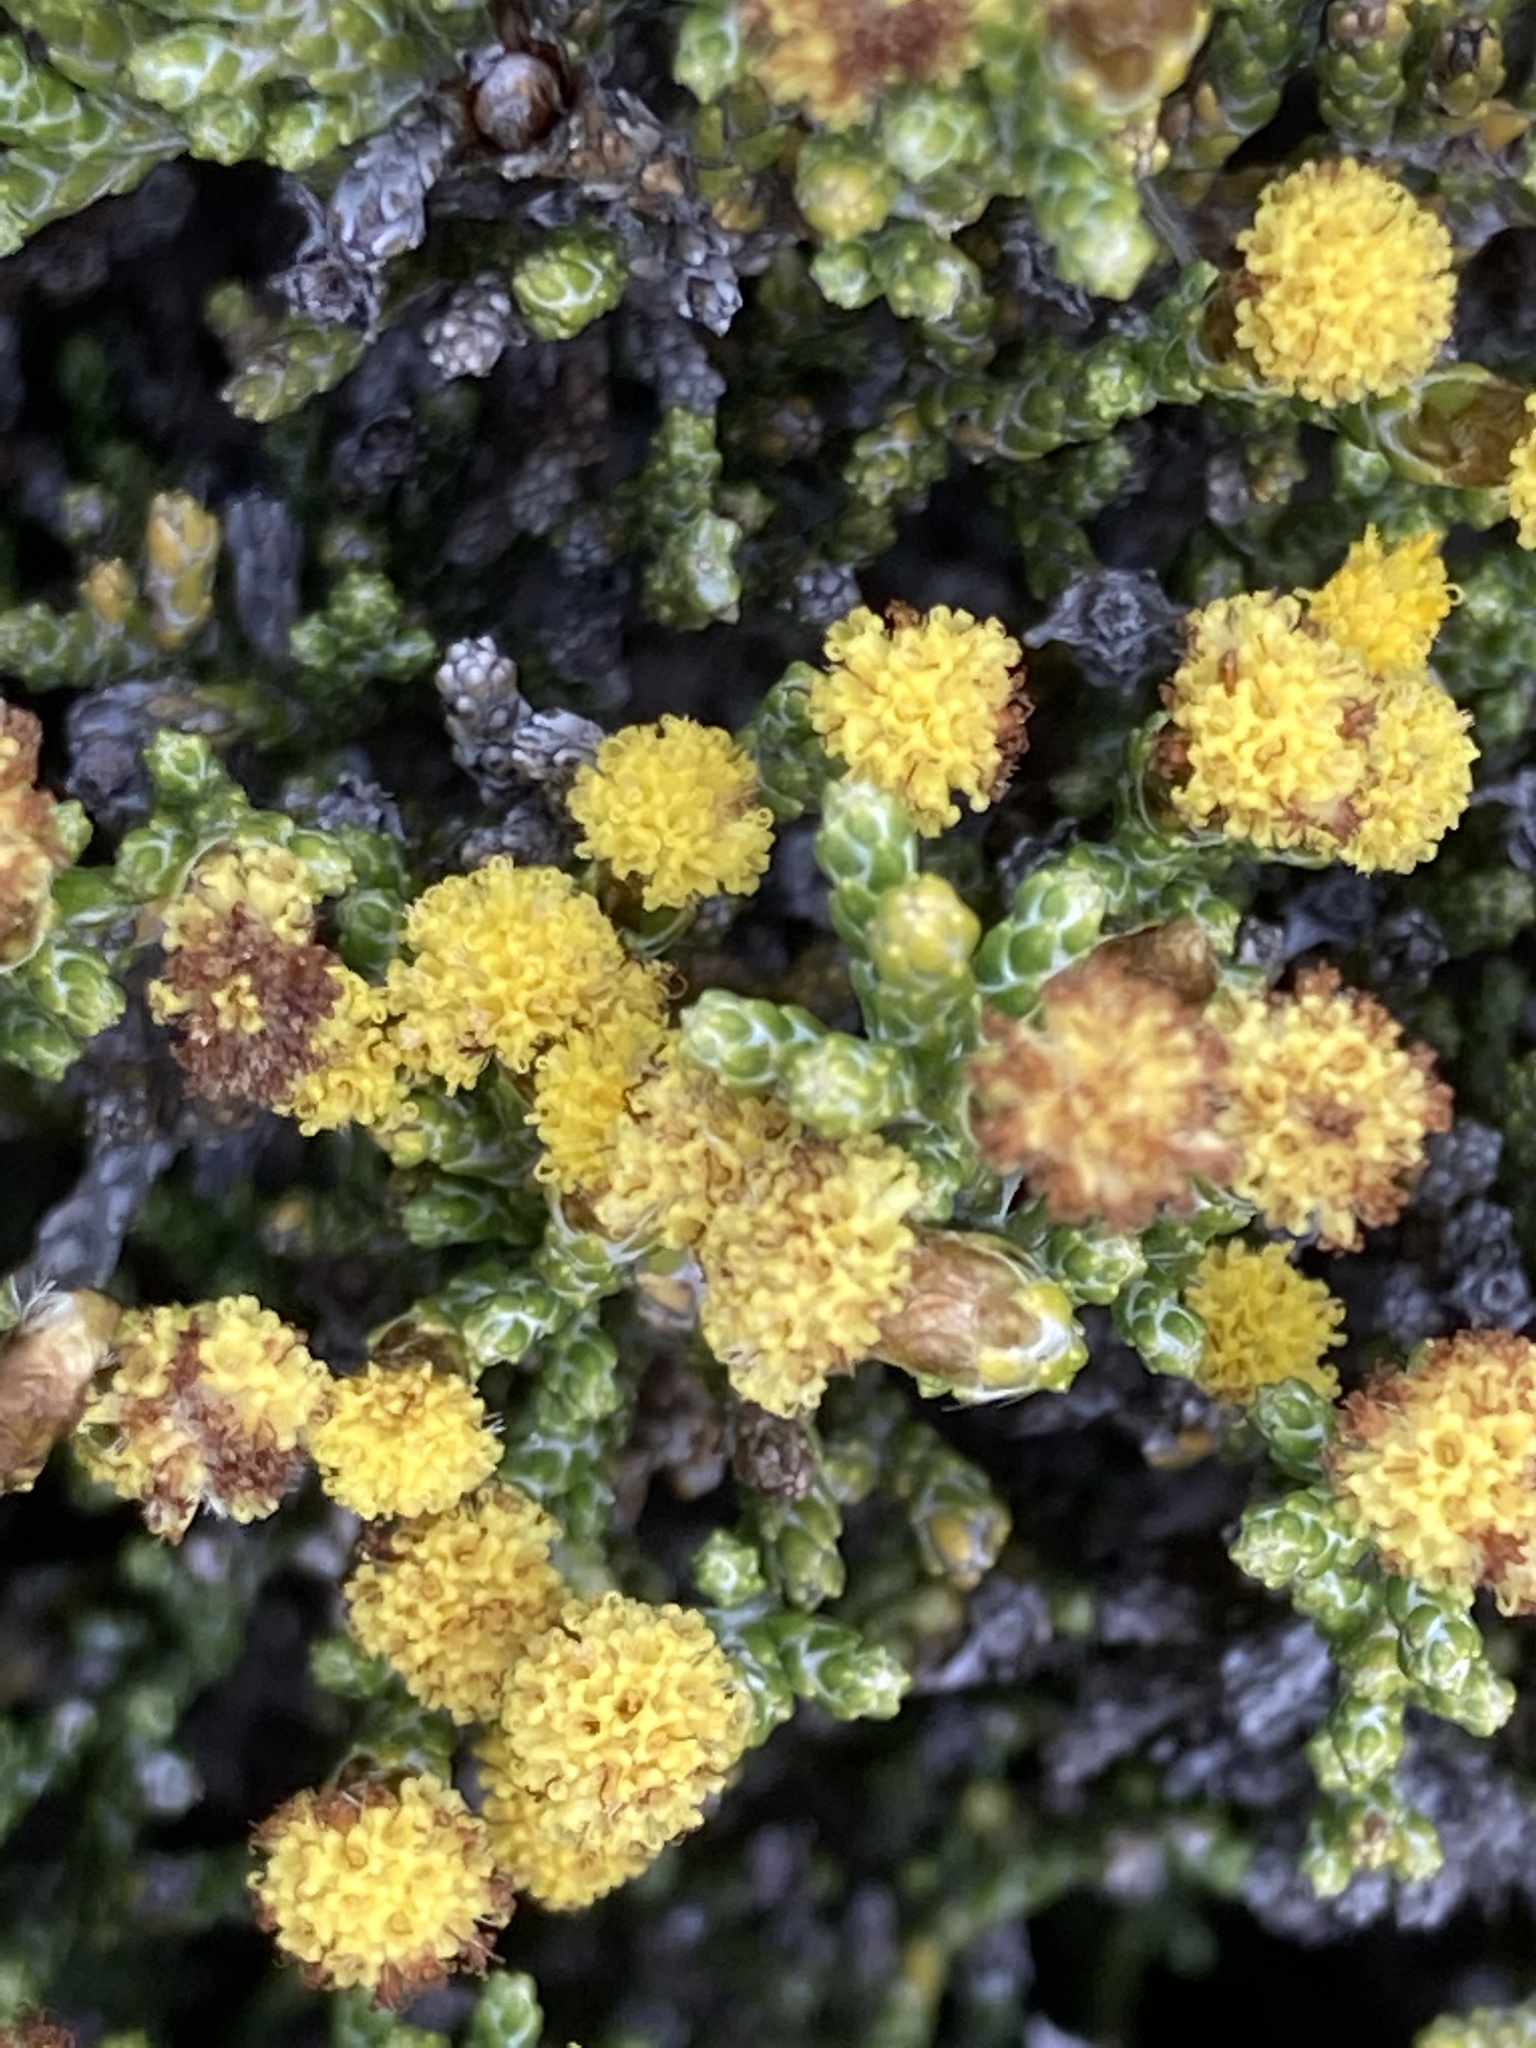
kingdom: Plantae
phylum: Tracheophyta
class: Magnoliopsida
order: Asterales
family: Asteraceae
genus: Ozothamnus
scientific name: Ozothamnus parvifolius
